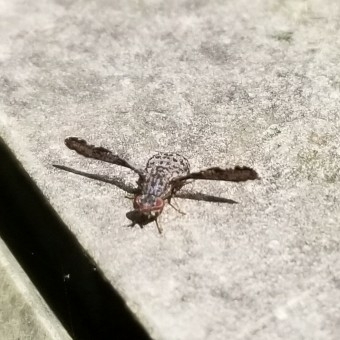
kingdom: Animalia
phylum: Arthropoda
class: Insecta
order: Diptera
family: Ulidiidae
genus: Callopistromyia
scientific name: Callopistromyia strigula
